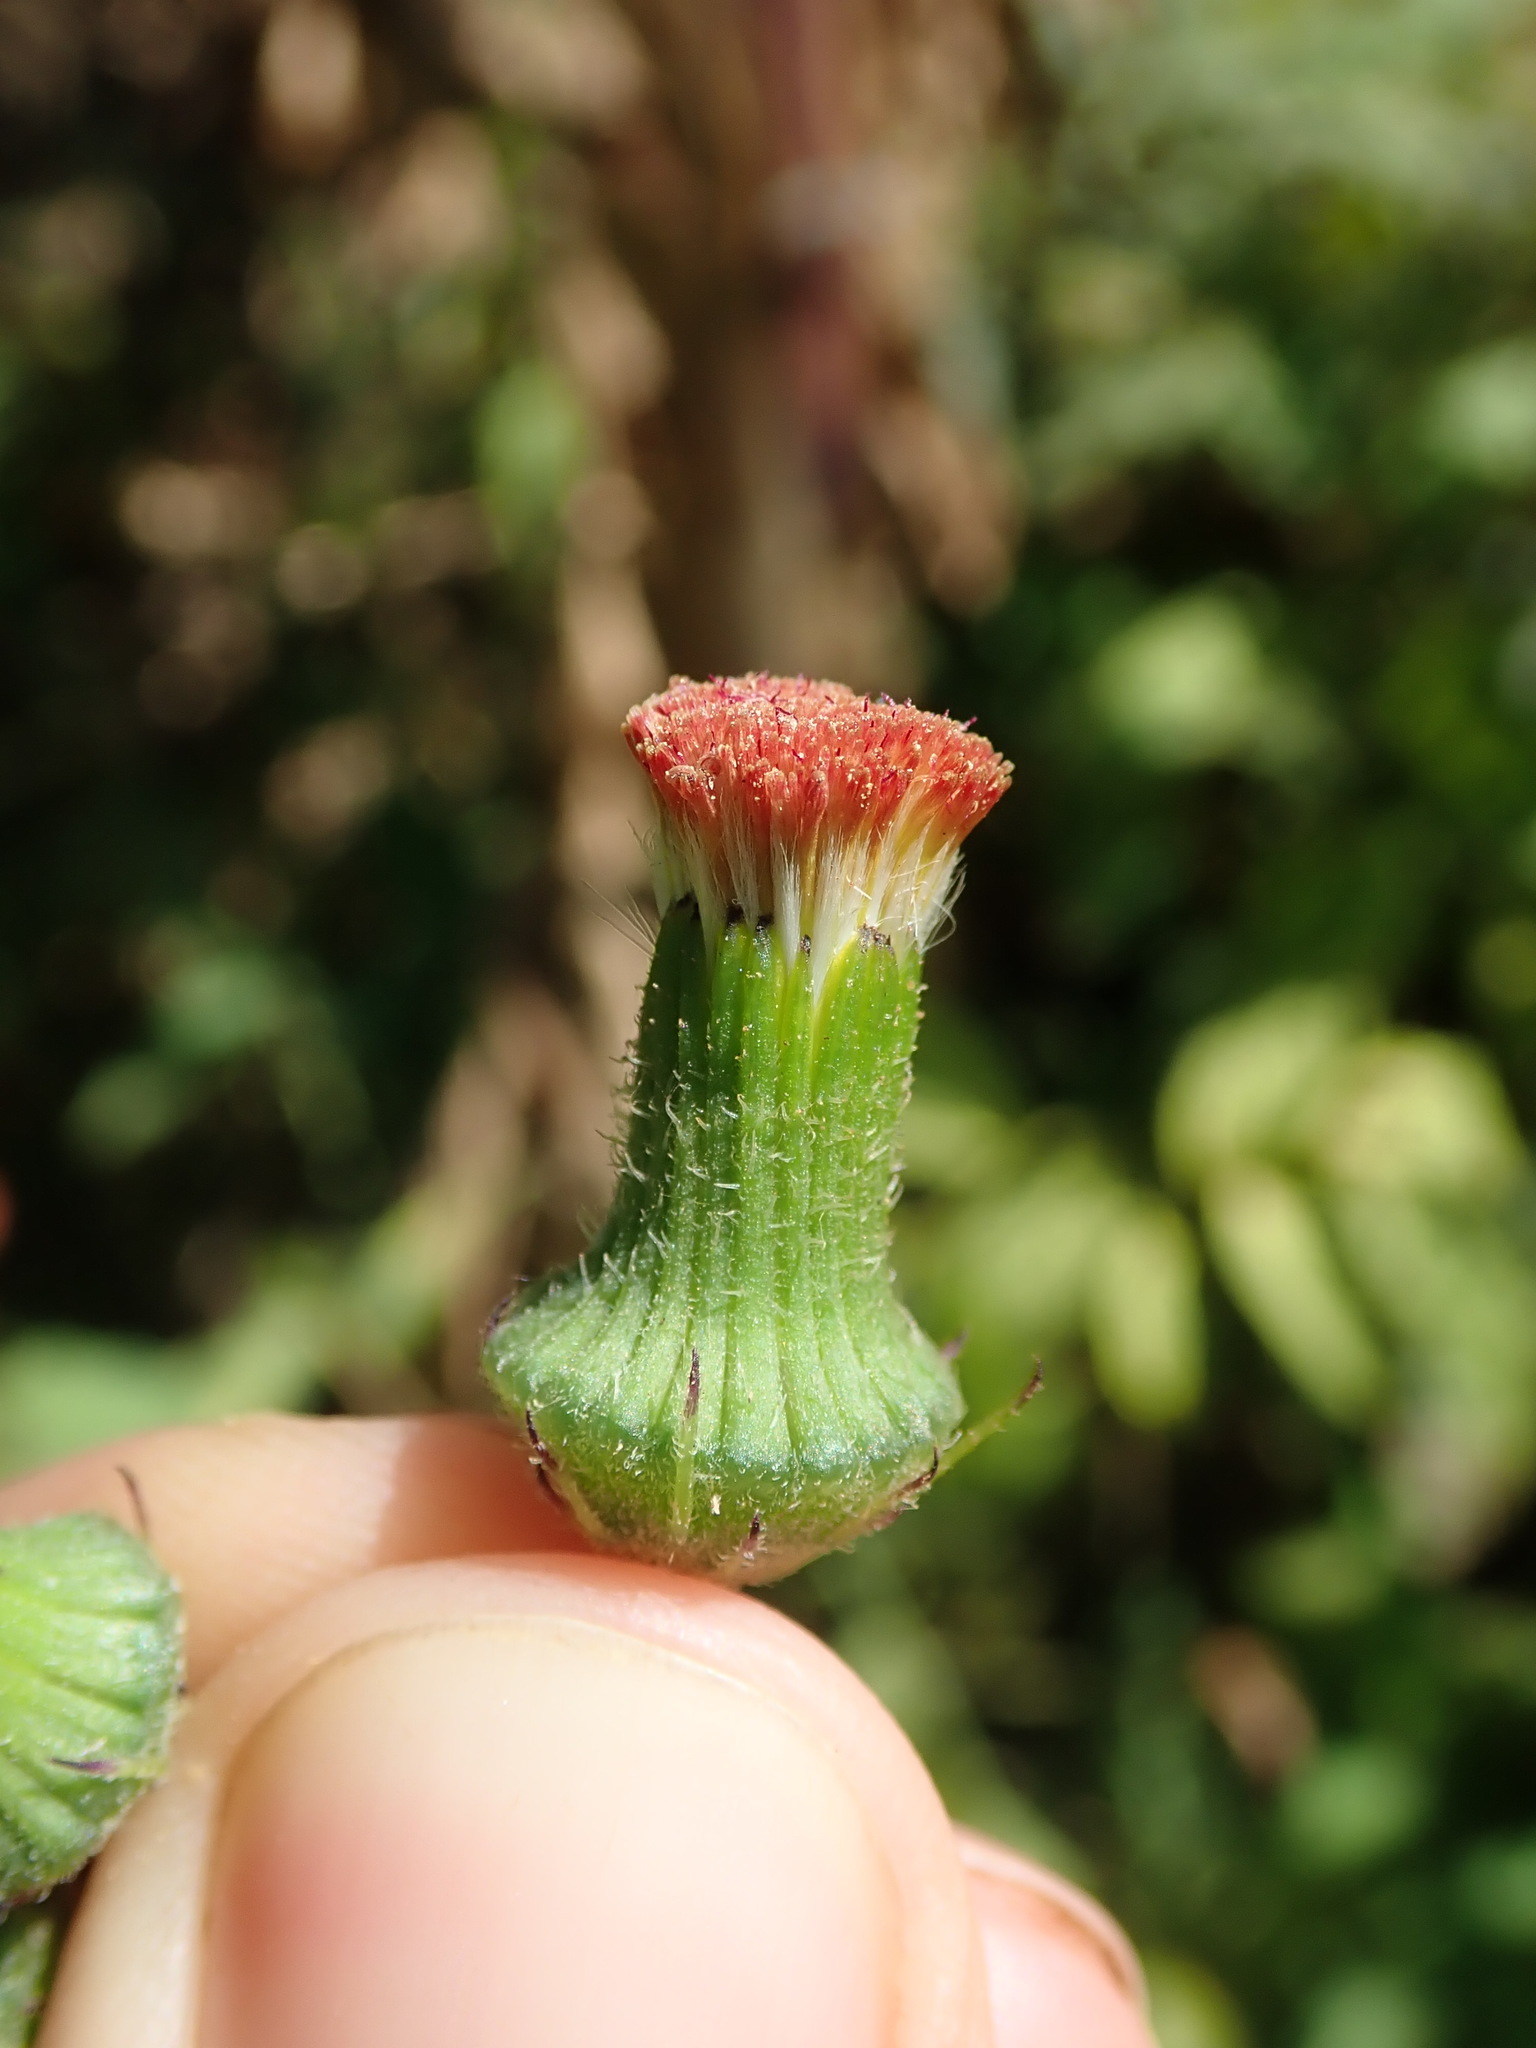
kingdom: Plantae
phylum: Tracheophyta
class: Magnoliopsida
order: Asterales
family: Asteraceae
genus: Crassocephalum
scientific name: Crassocephalum crepidioides
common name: Redflower ragleaf
